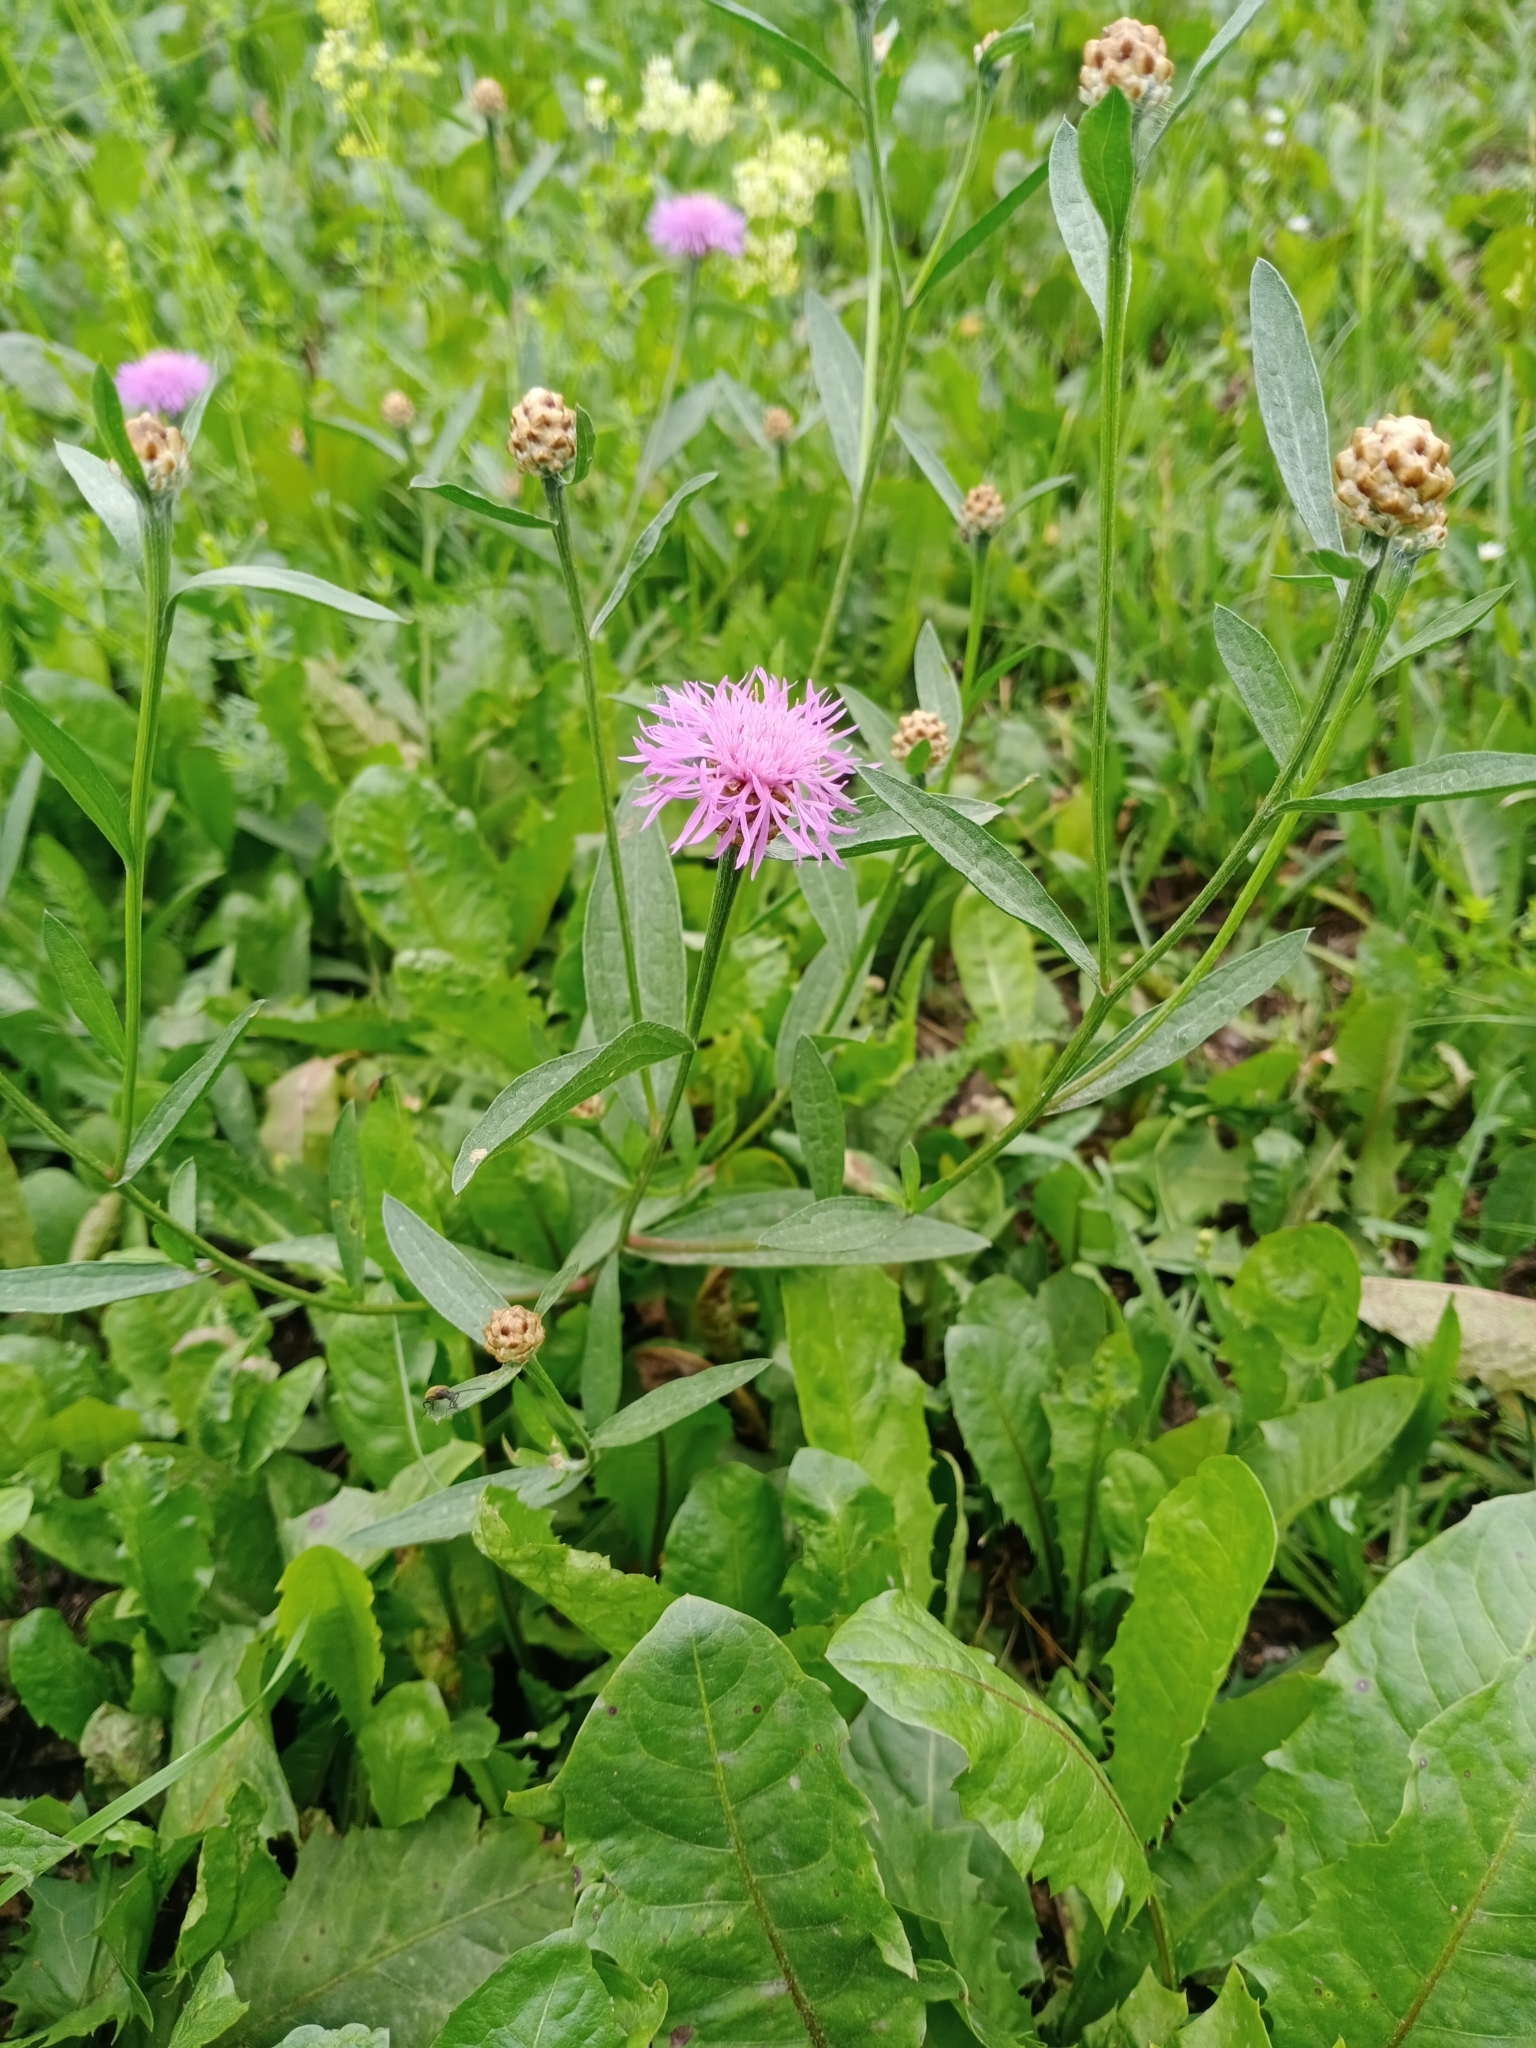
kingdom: Plantae
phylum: Tracheophyta
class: Magnoliopsida
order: Asterales
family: Asteraceae
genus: Centaurea
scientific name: Centaurea jacea
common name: Brown knapweed
